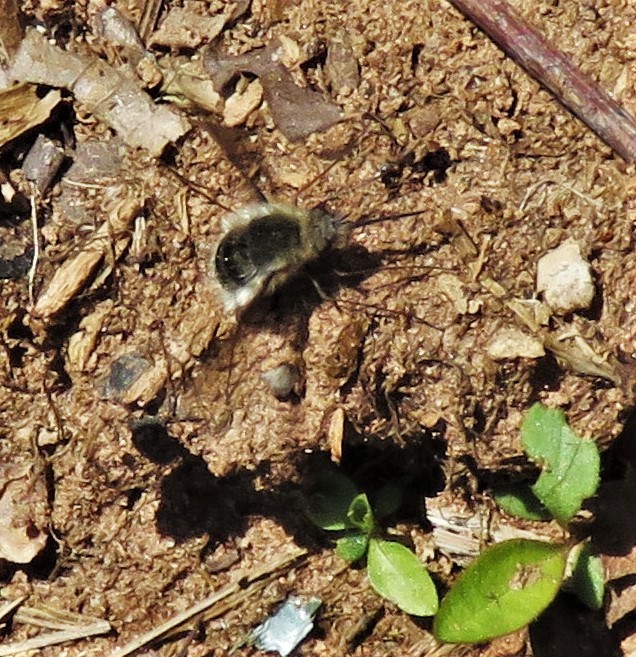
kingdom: Animalia
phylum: Arthropoda
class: Insecta
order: Diptera
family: Bombyliidae
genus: Bombylius
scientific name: Bombylius major
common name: Bee fly
